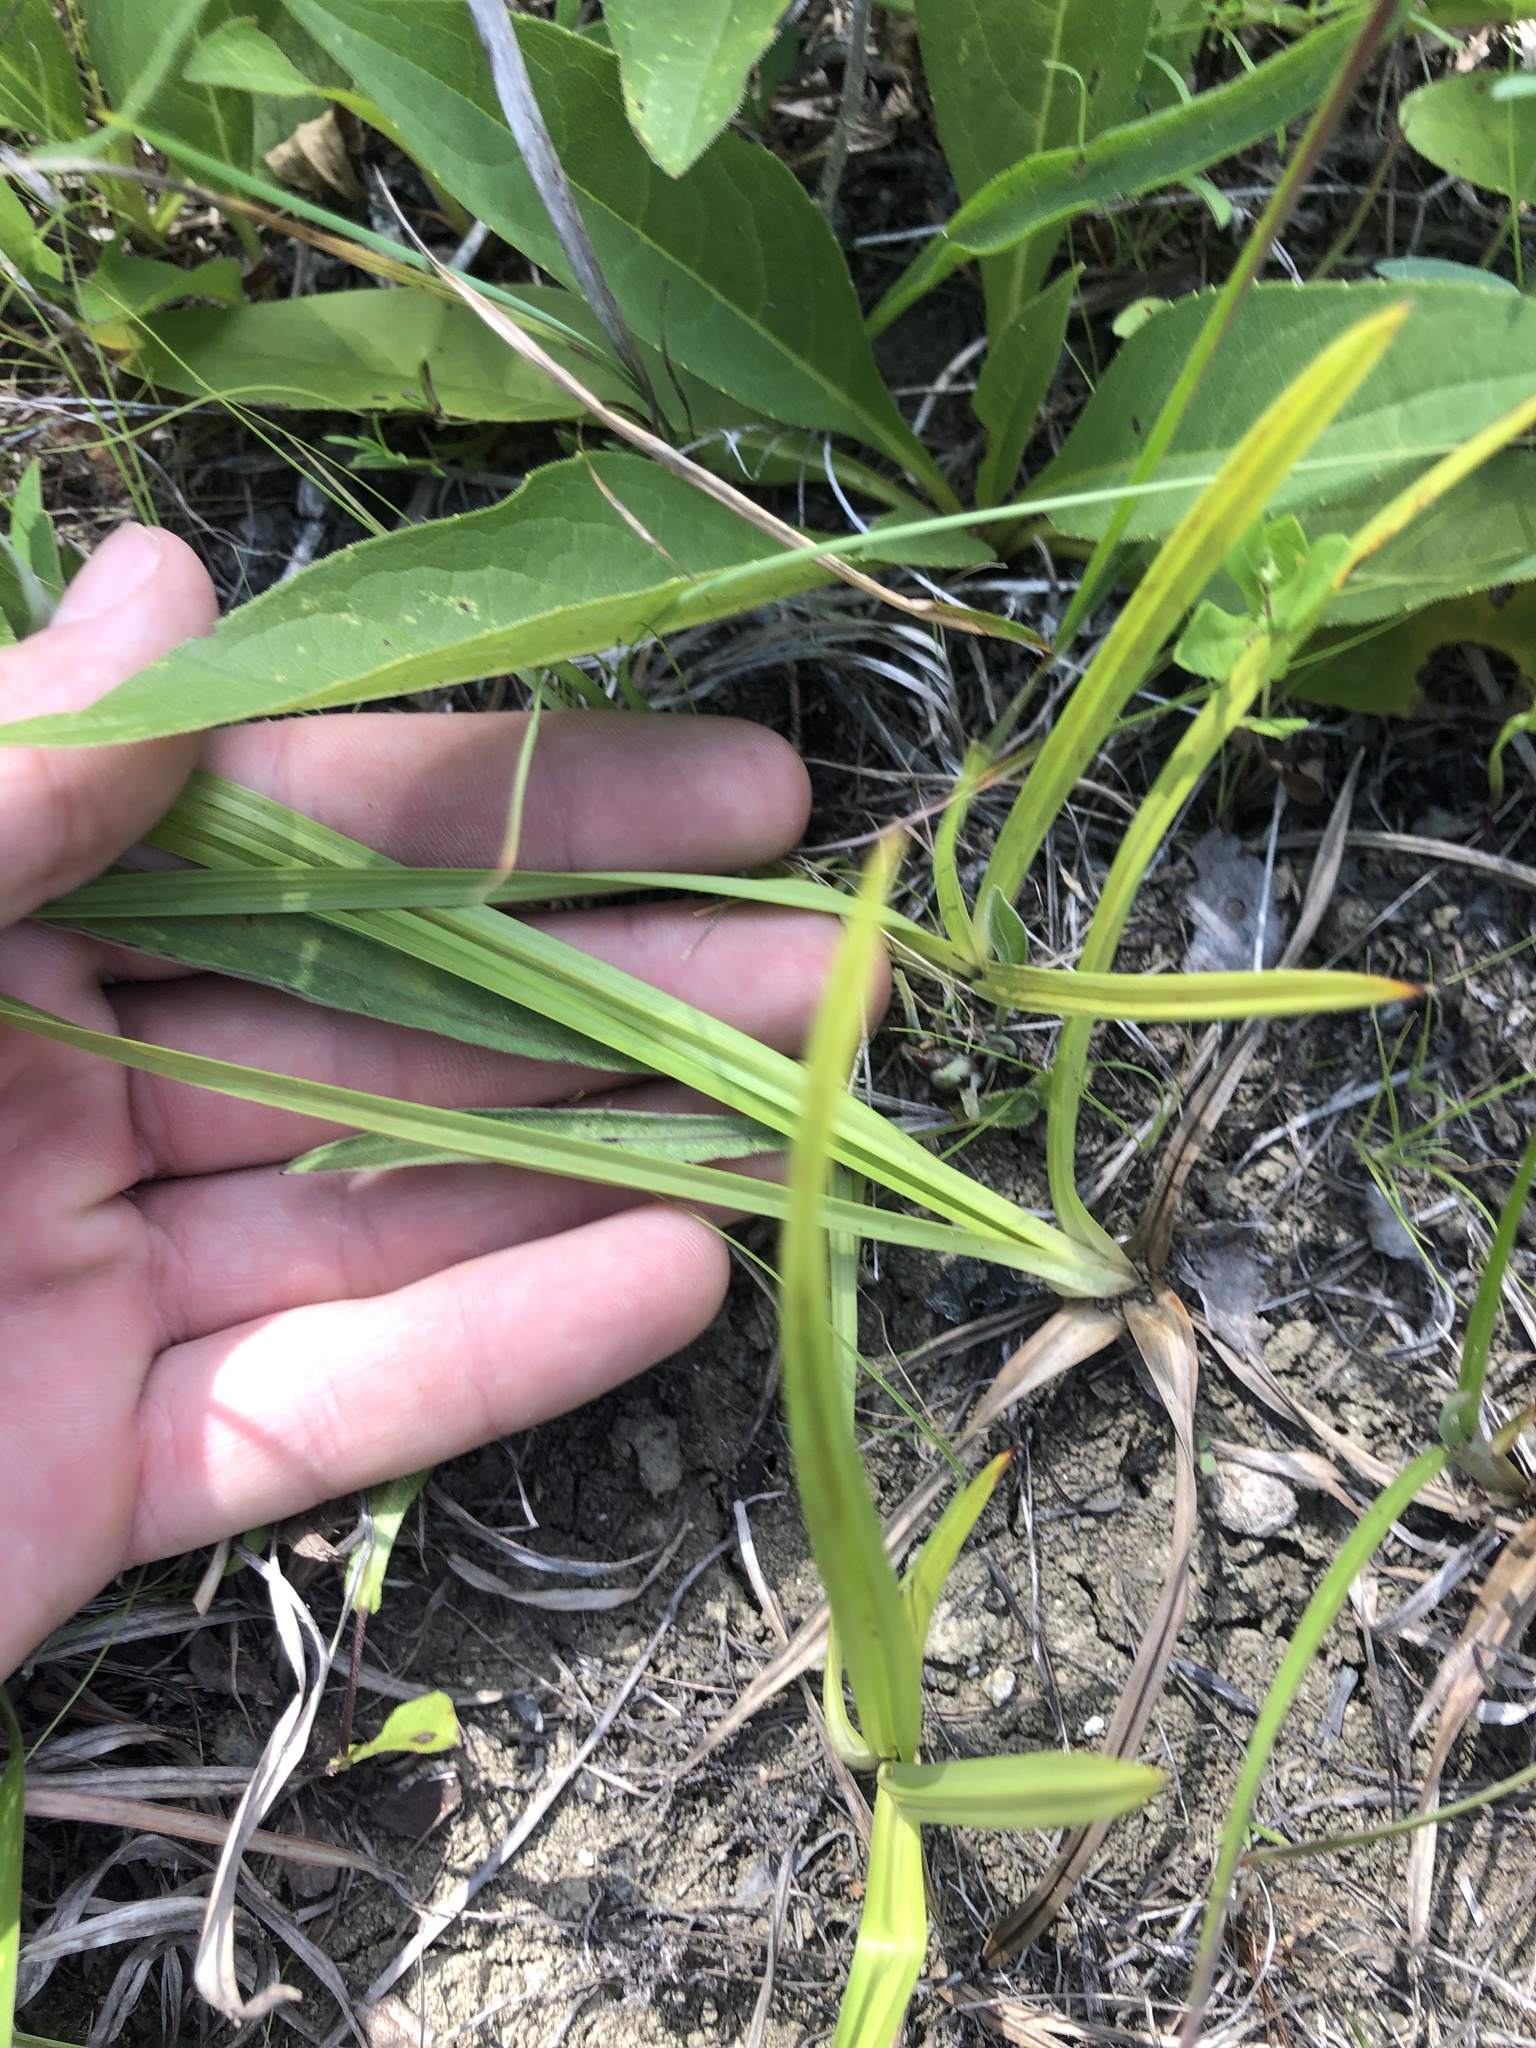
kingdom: Plantae
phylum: Tracheophyta
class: Liliopsida
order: Poales
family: Cyperaceae
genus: Carex
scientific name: Carex microdonta
